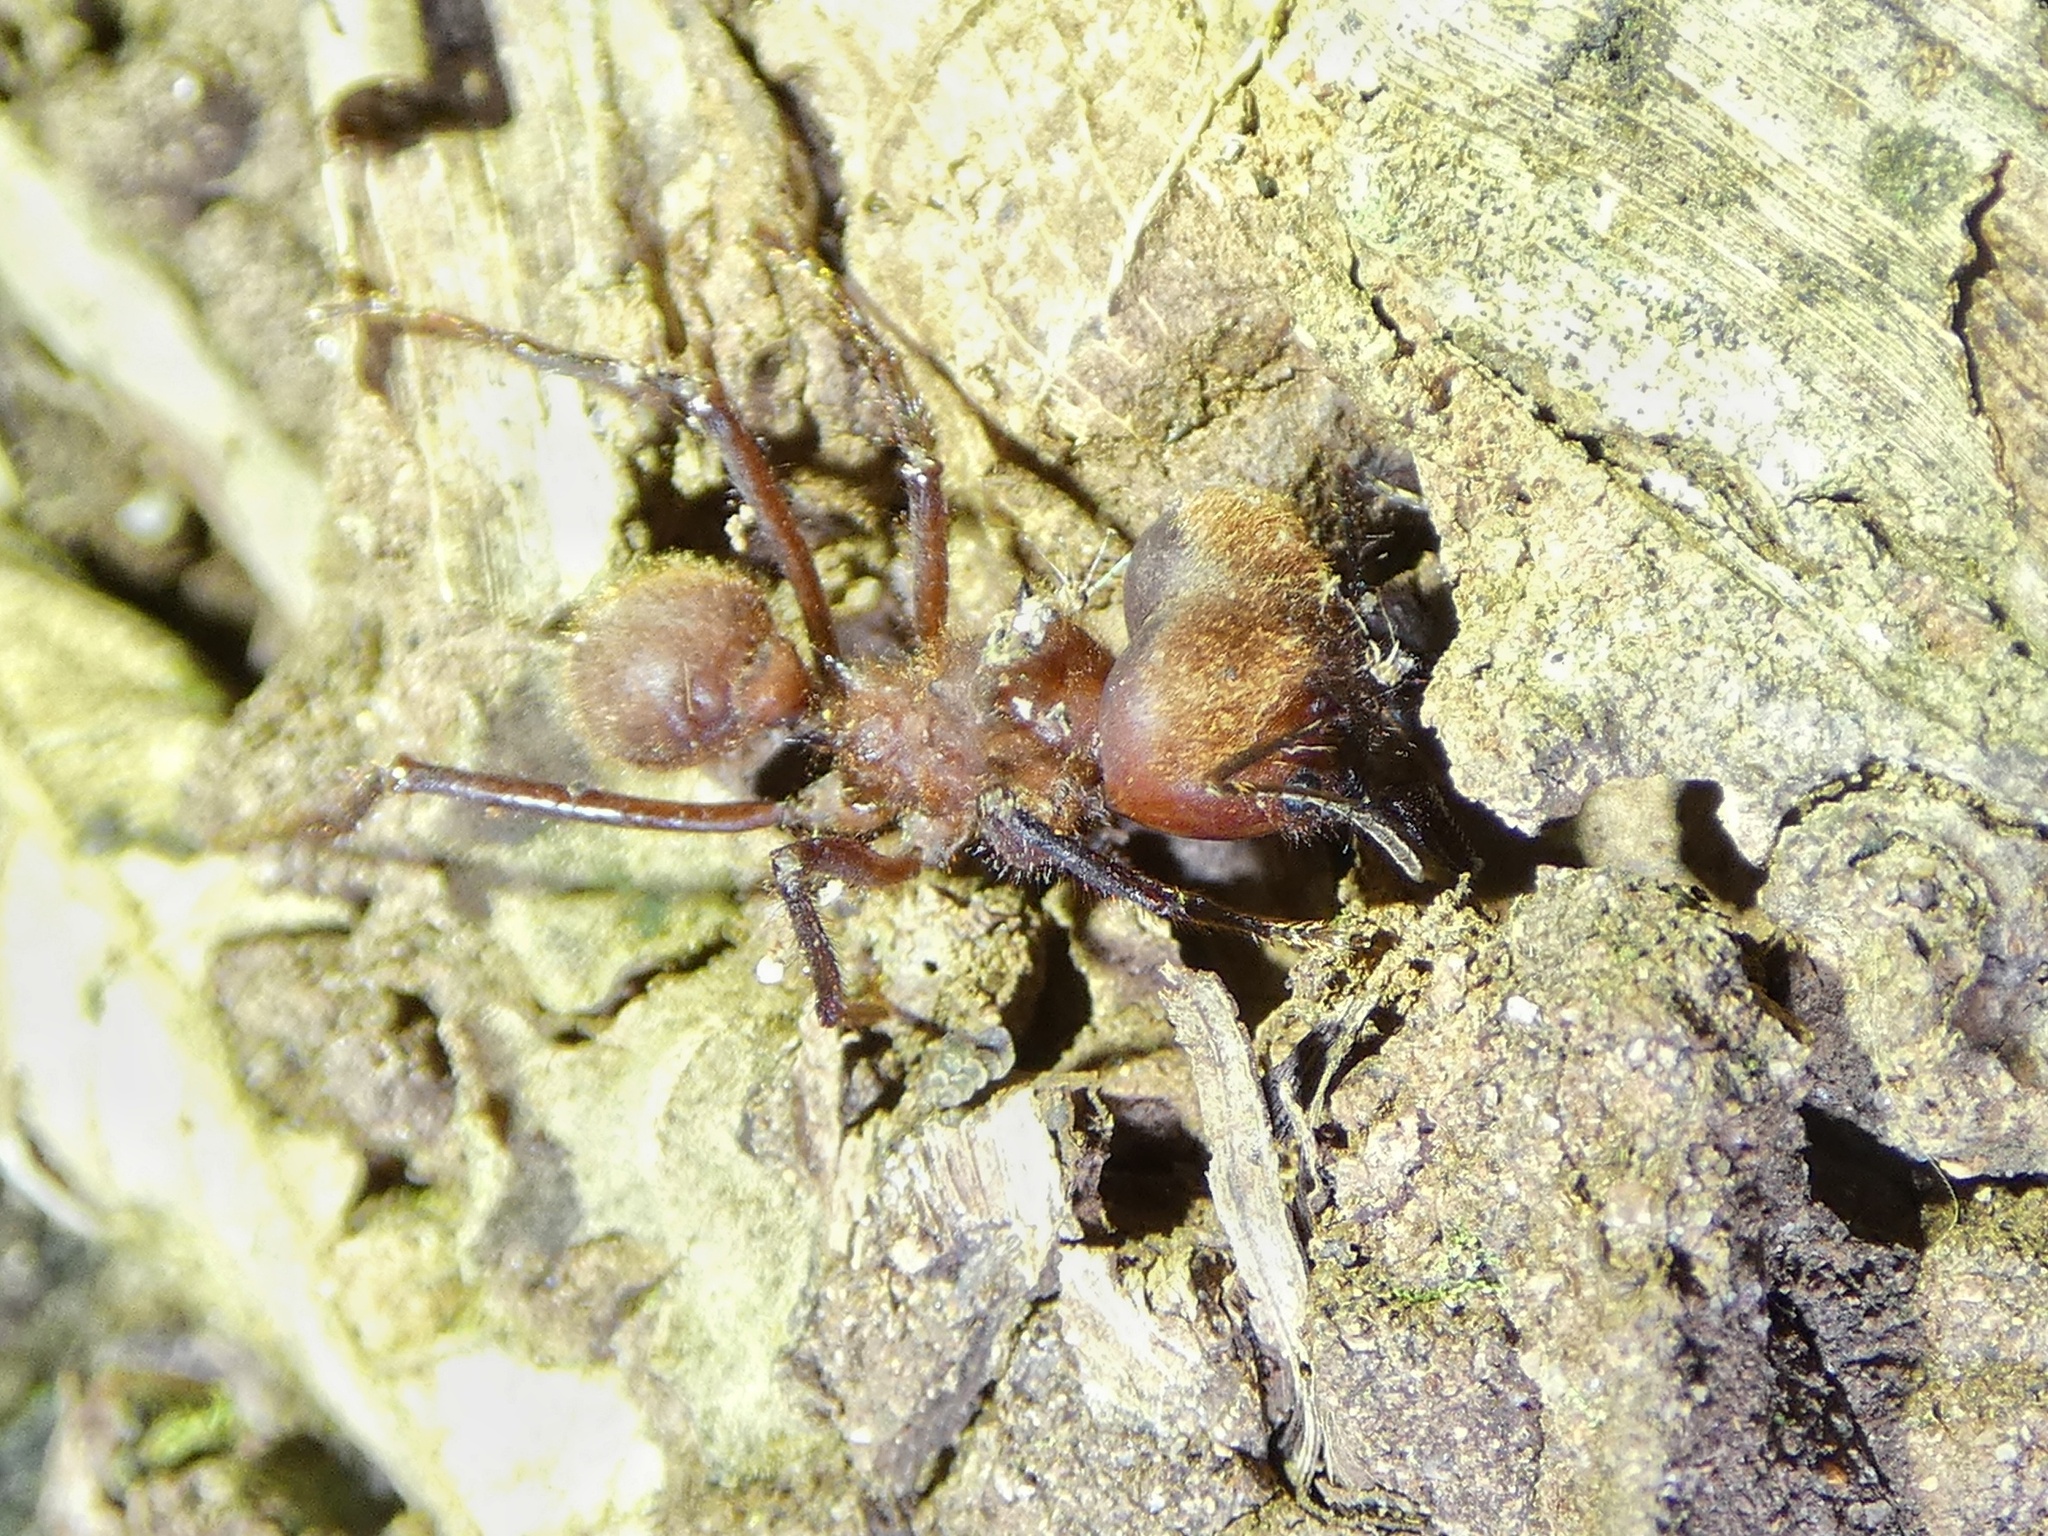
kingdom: Animalia
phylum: Arthropoda
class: Insecta
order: Hymenoptera
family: Formicidae
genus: Atta
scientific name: Atta cephalotes
